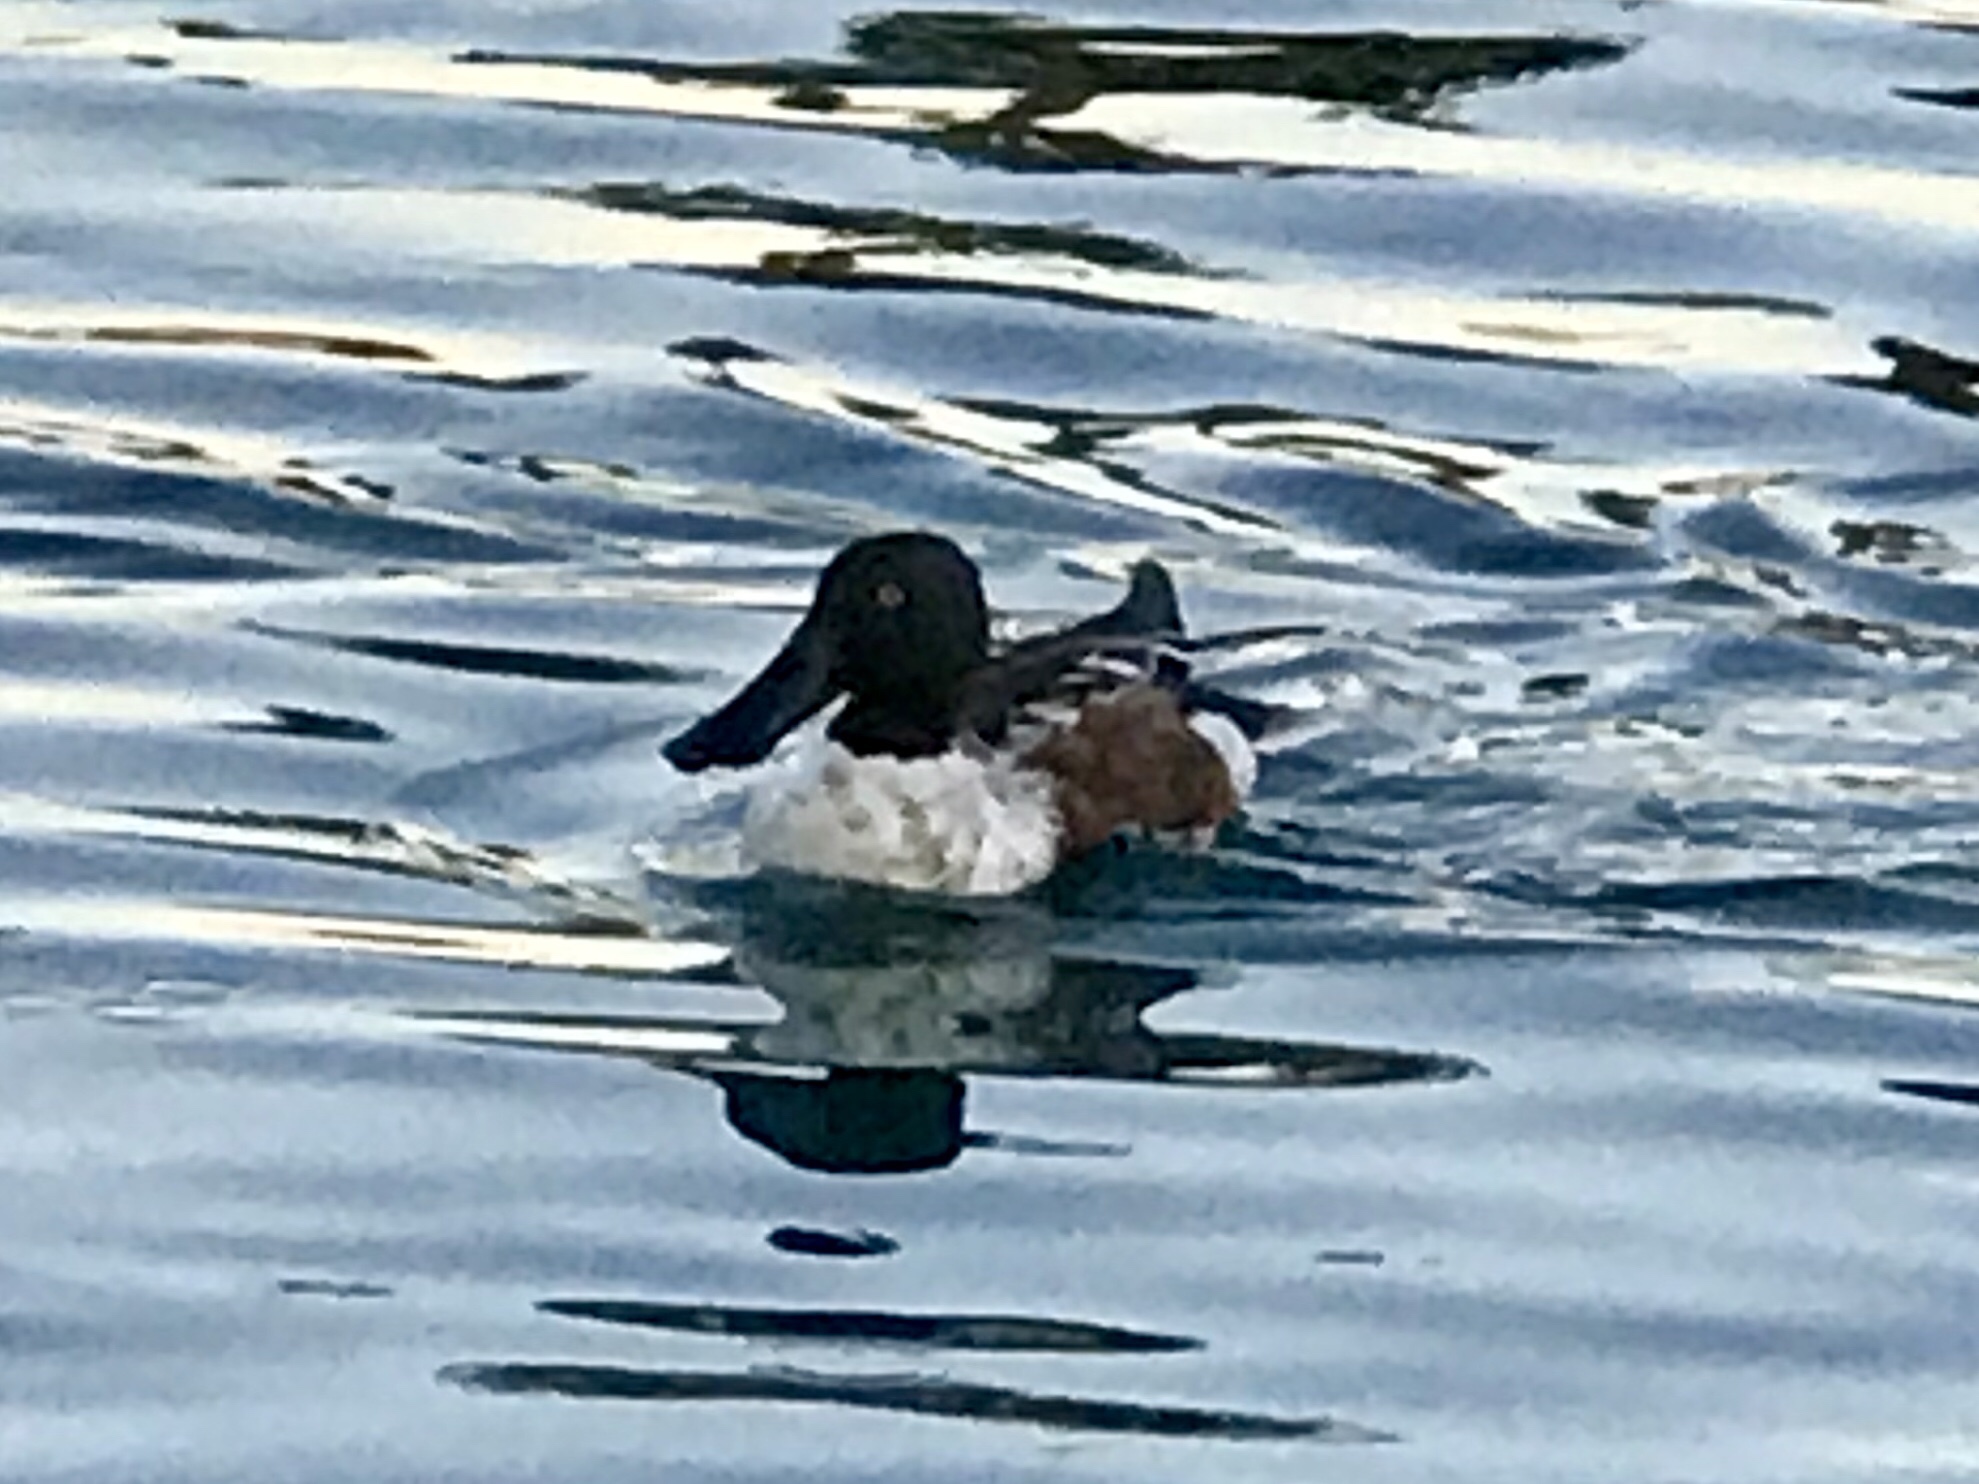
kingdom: Animalia
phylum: Chordata
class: Aves
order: Anseriformes
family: Anatidae
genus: Spatula
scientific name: Spatula clypeata
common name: Northern shoveler
